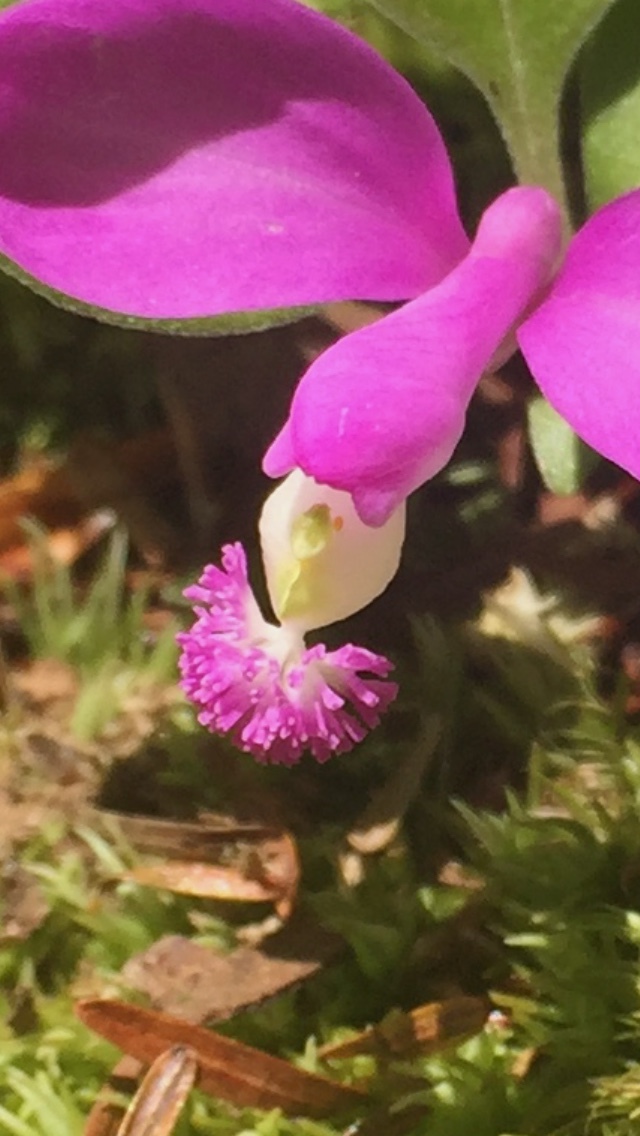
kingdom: Plantae
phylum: Tracheophyta
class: Magnoliopsida
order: Fabales
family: Polygalaceae
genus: Polygaloides
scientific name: Polygaloides paucifolia
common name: Bird-on-the-wing
